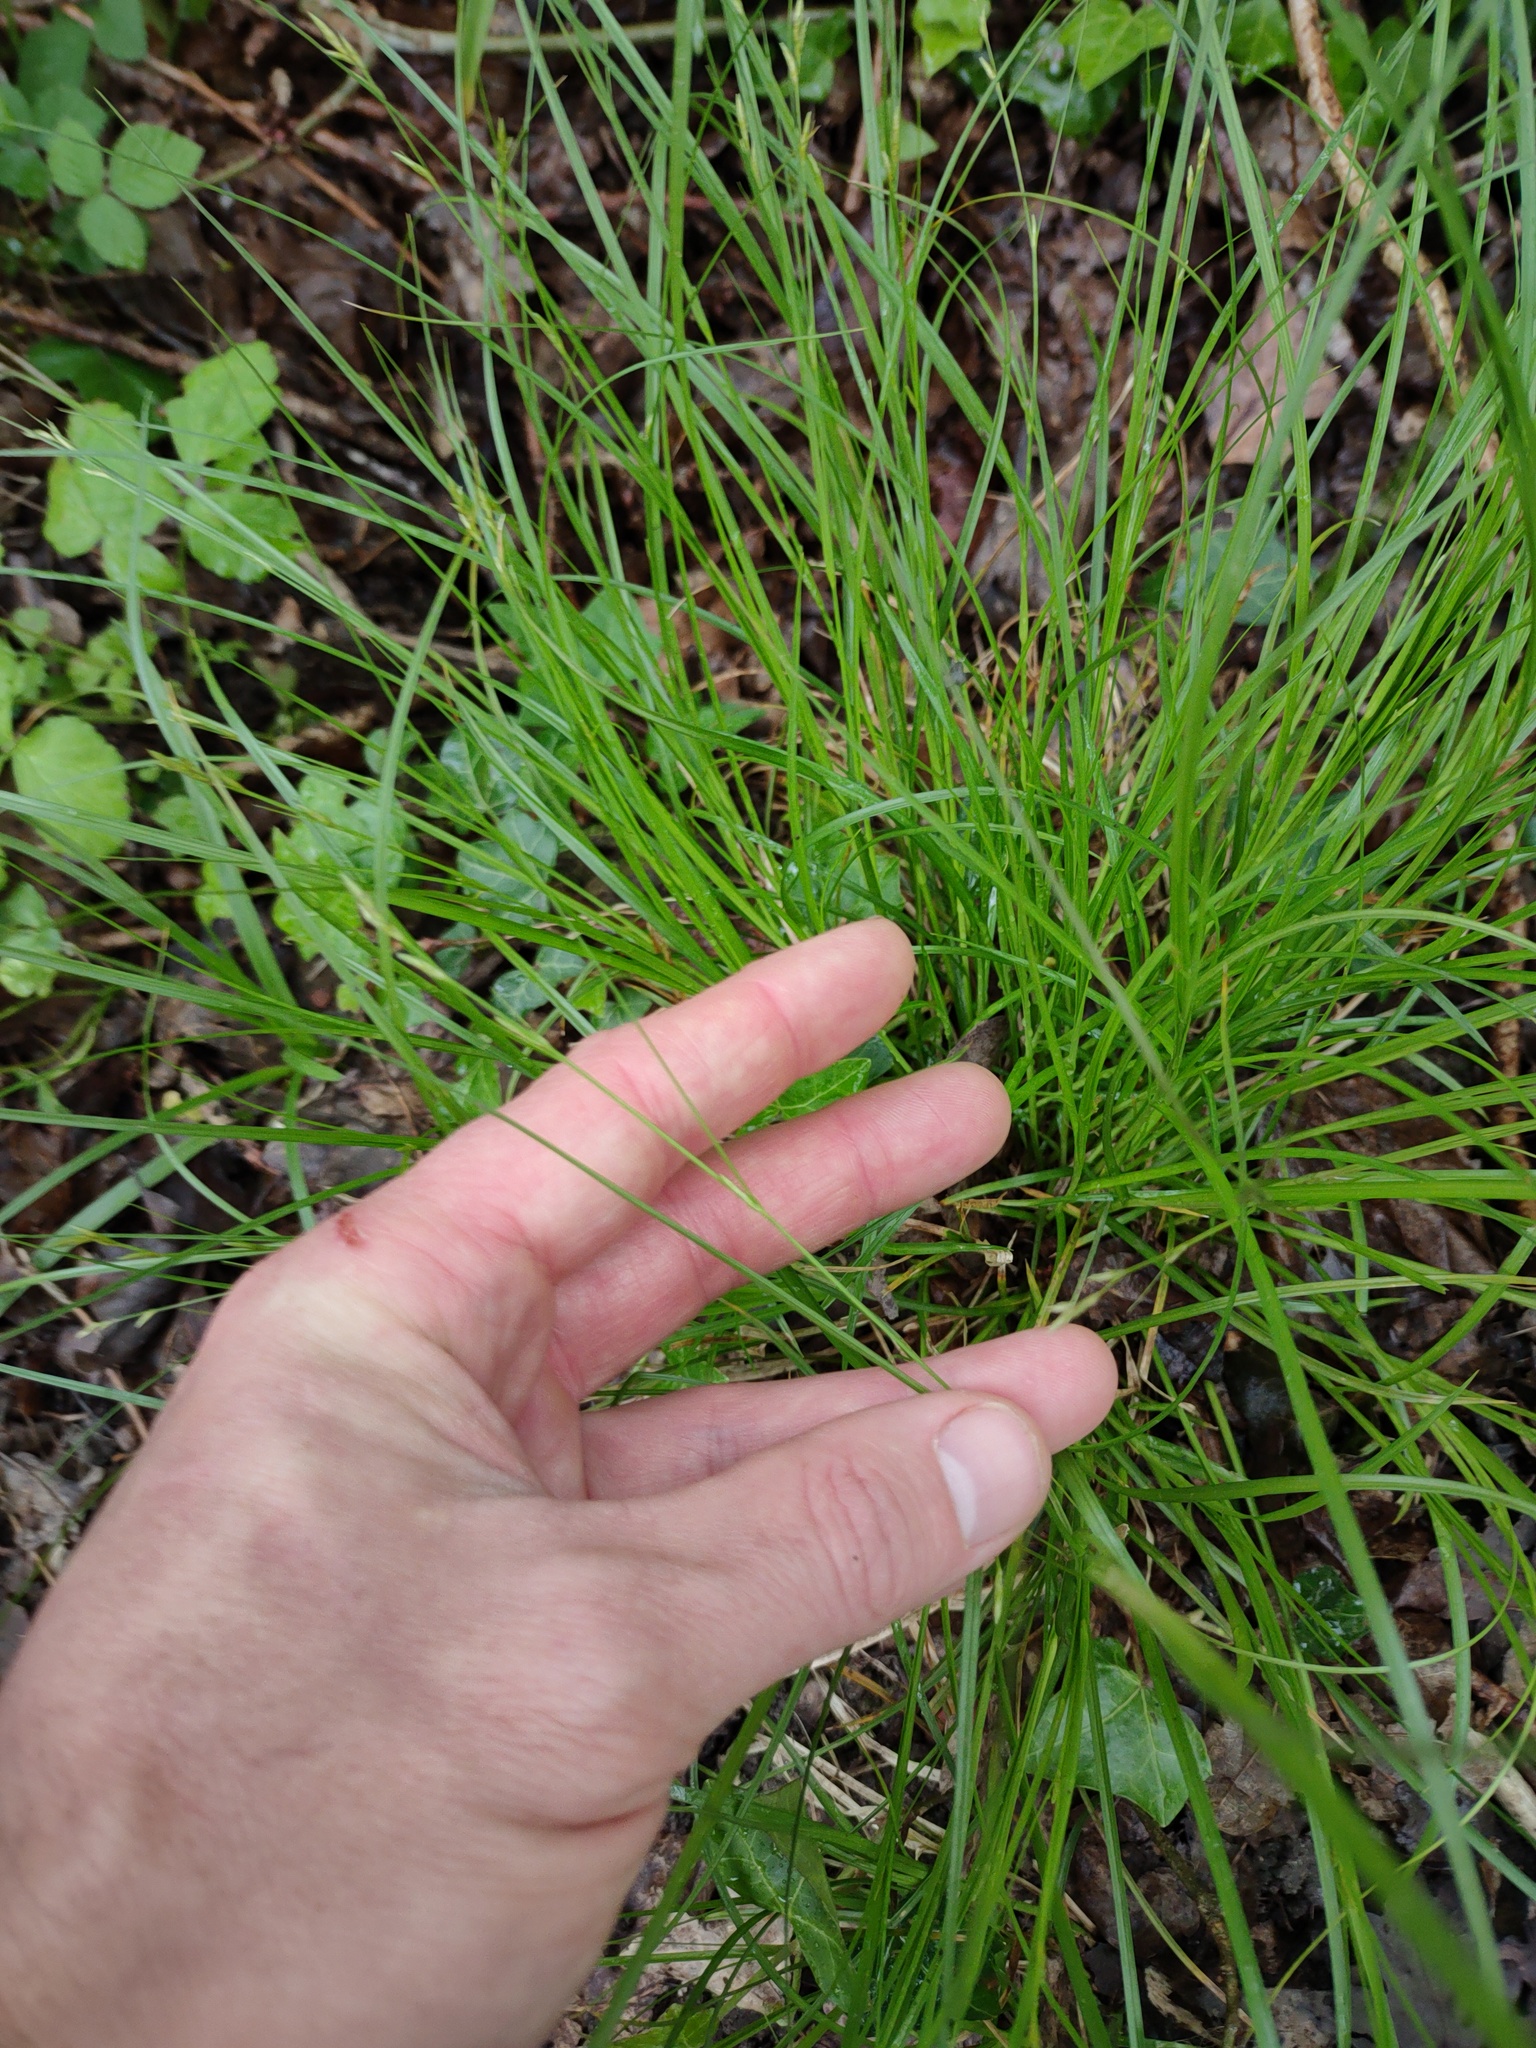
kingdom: Plantae
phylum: Tracheophyta
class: Liliopsida
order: Poales
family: Cyperaceae
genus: Carex
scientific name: Carex remota
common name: Remote sedge
